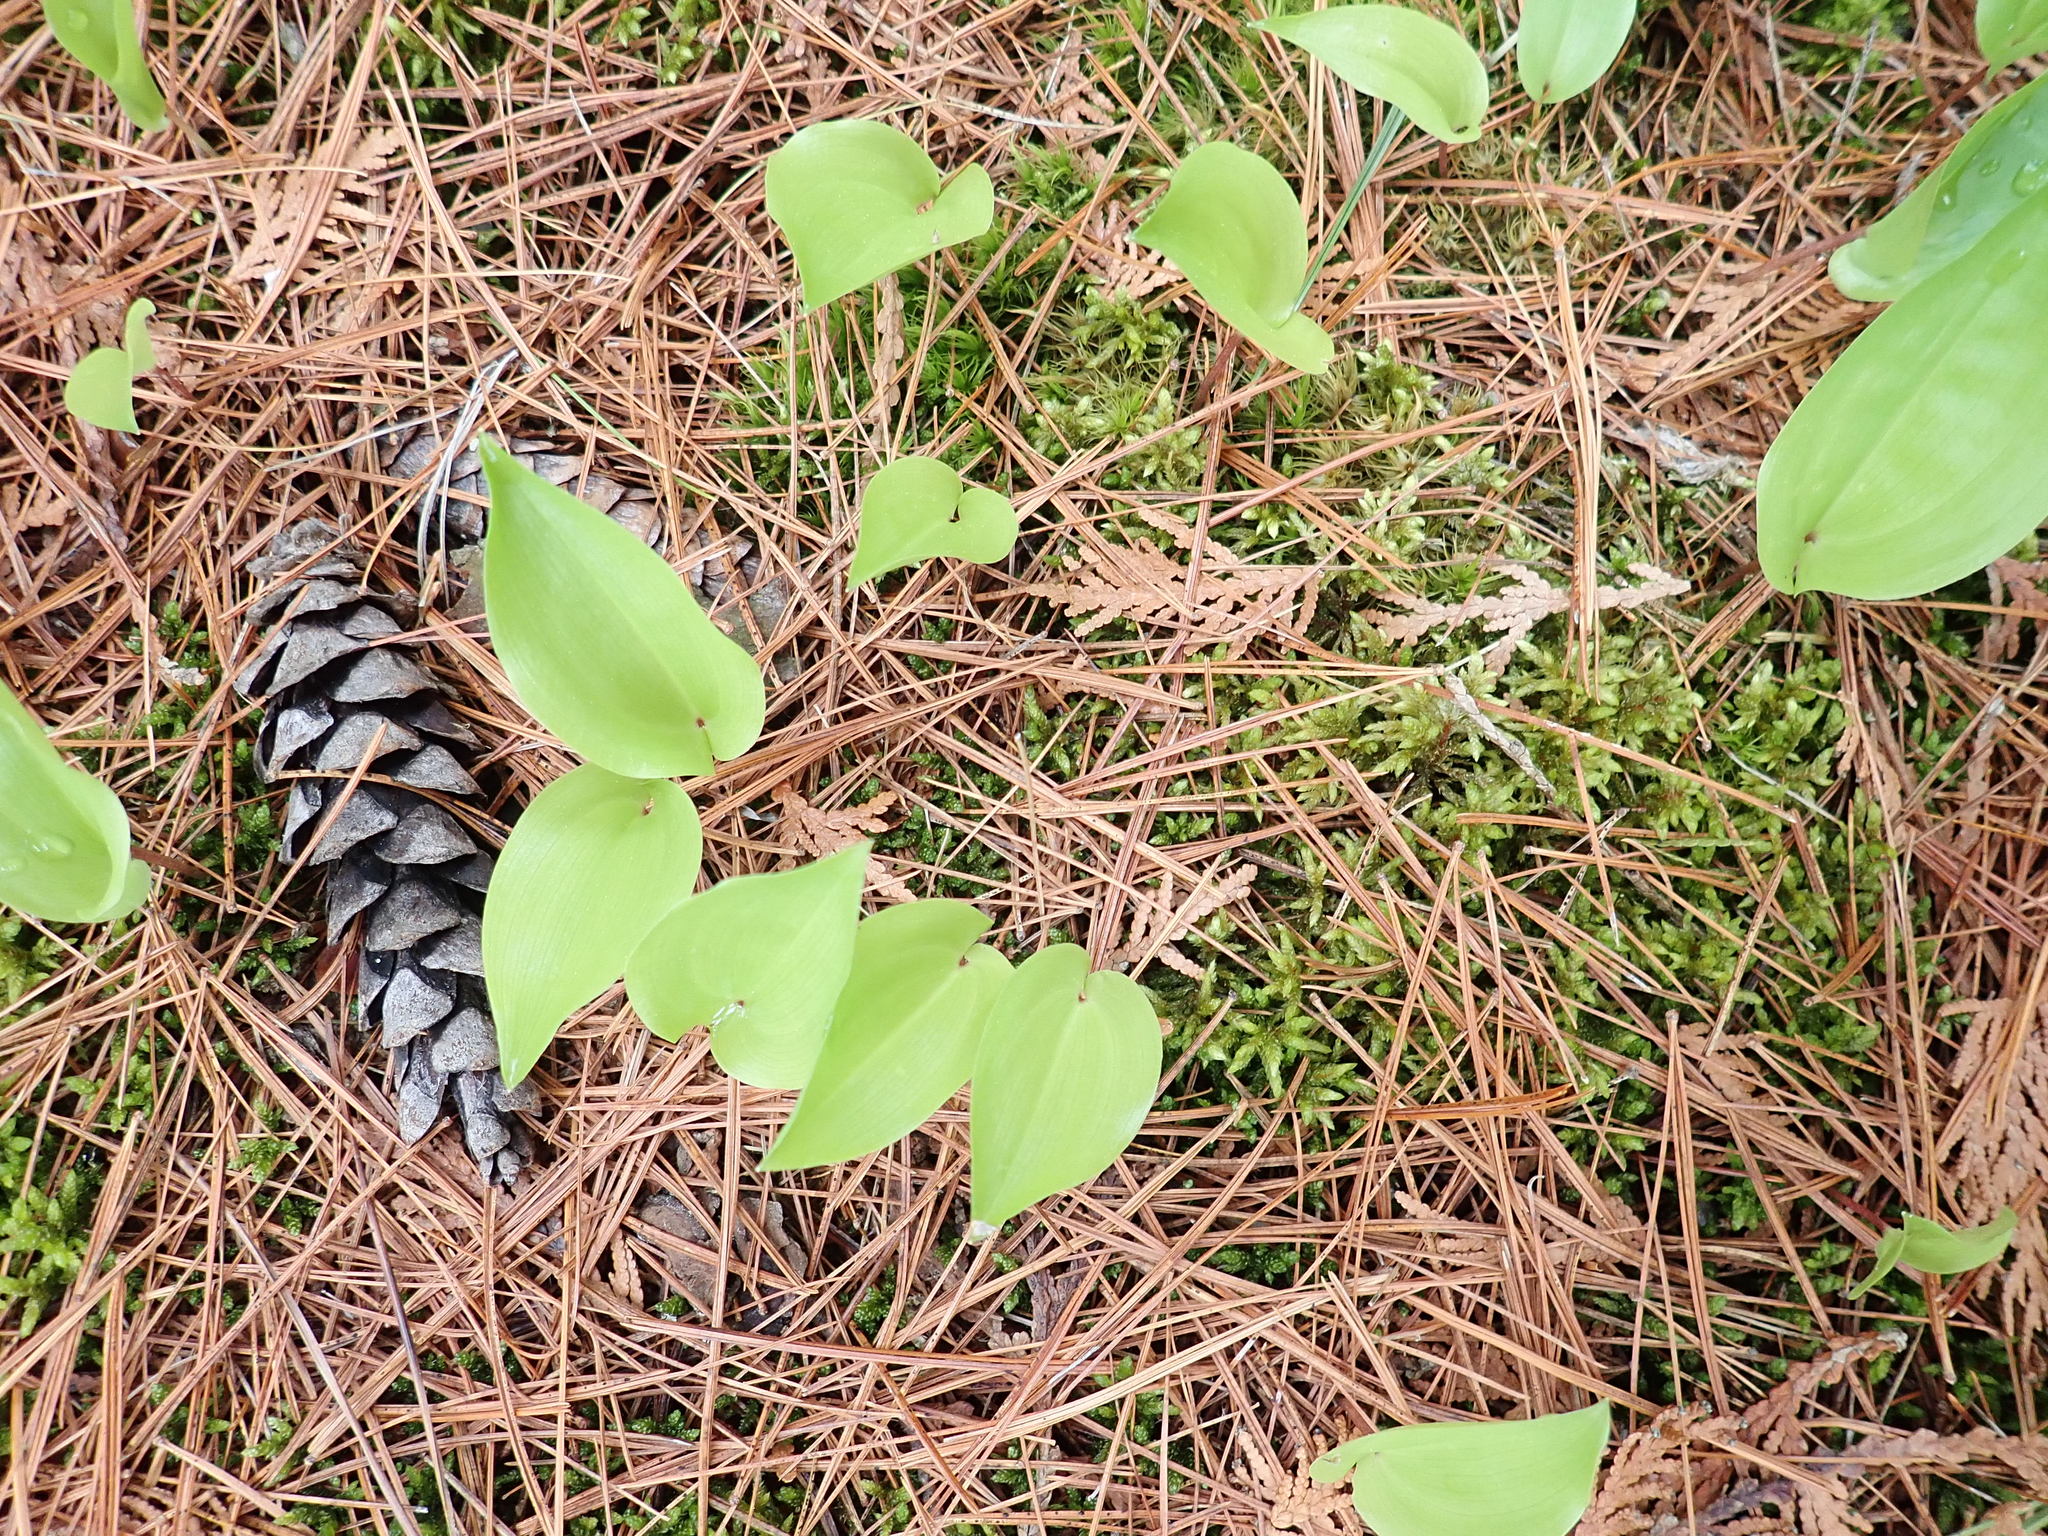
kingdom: Plantae
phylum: Tracheophyta
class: Liliopsida
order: Asparagales
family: Asparagaceae
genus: Maianthemum
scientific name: Maianthemum canadense
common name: False lily-of-the-valley
